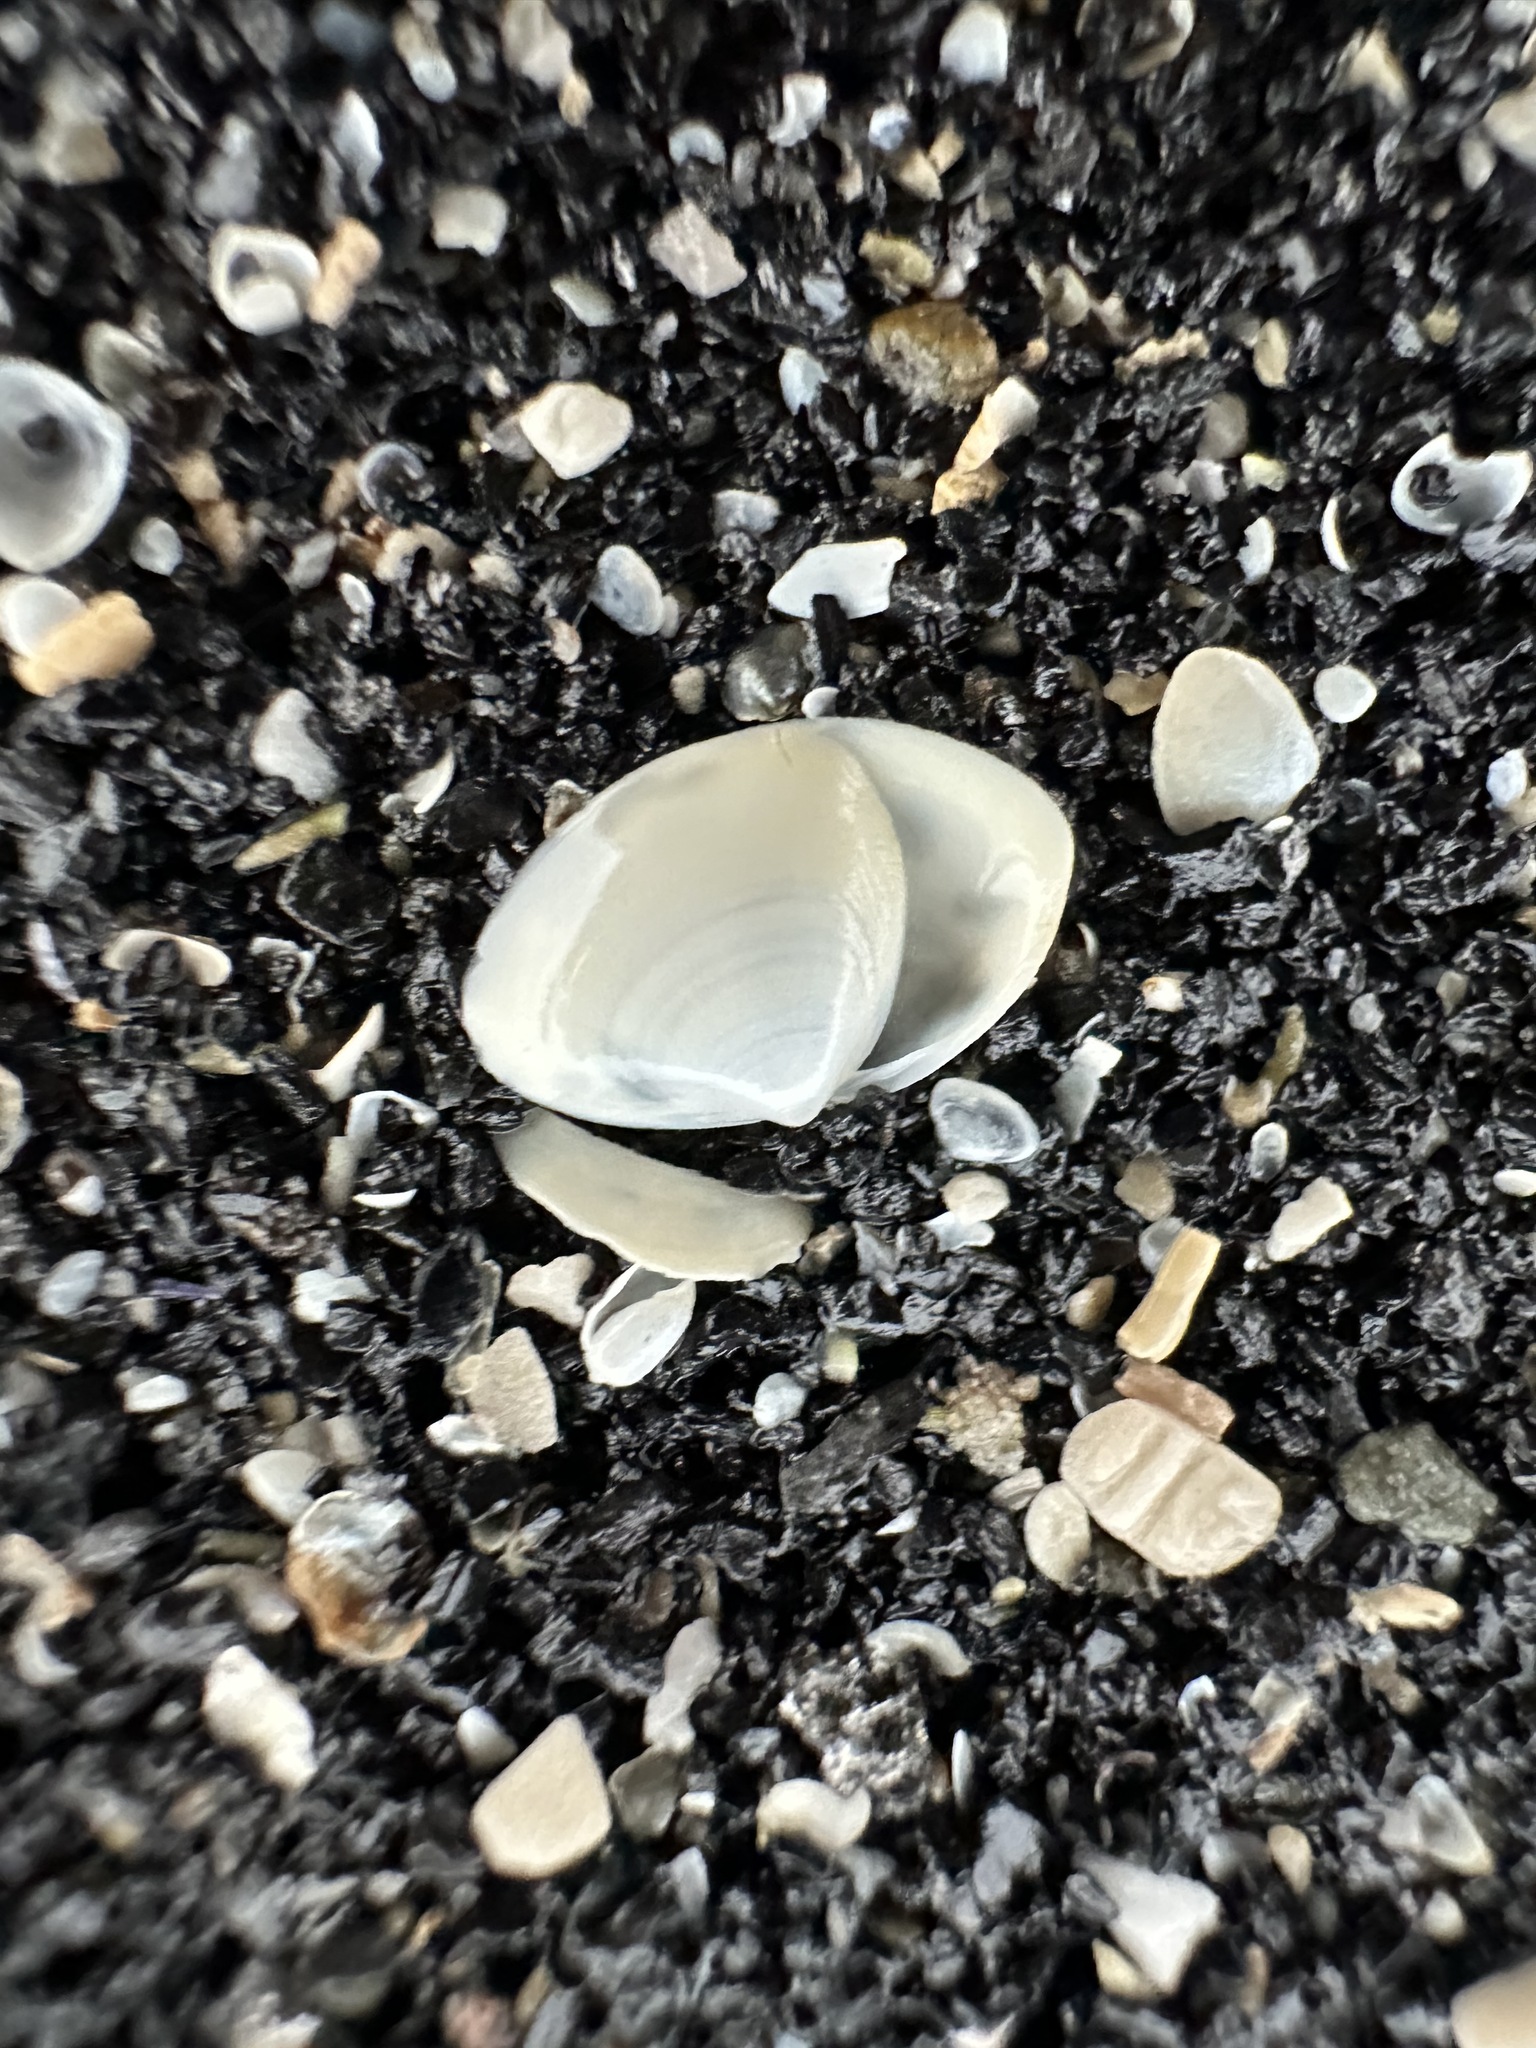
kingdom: Animalia
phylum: Mollusca
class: Bivalvia
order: Venerida
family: Mactridae
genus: Spisula
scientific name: Spisula solidissima
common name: Atlantic surf clam
